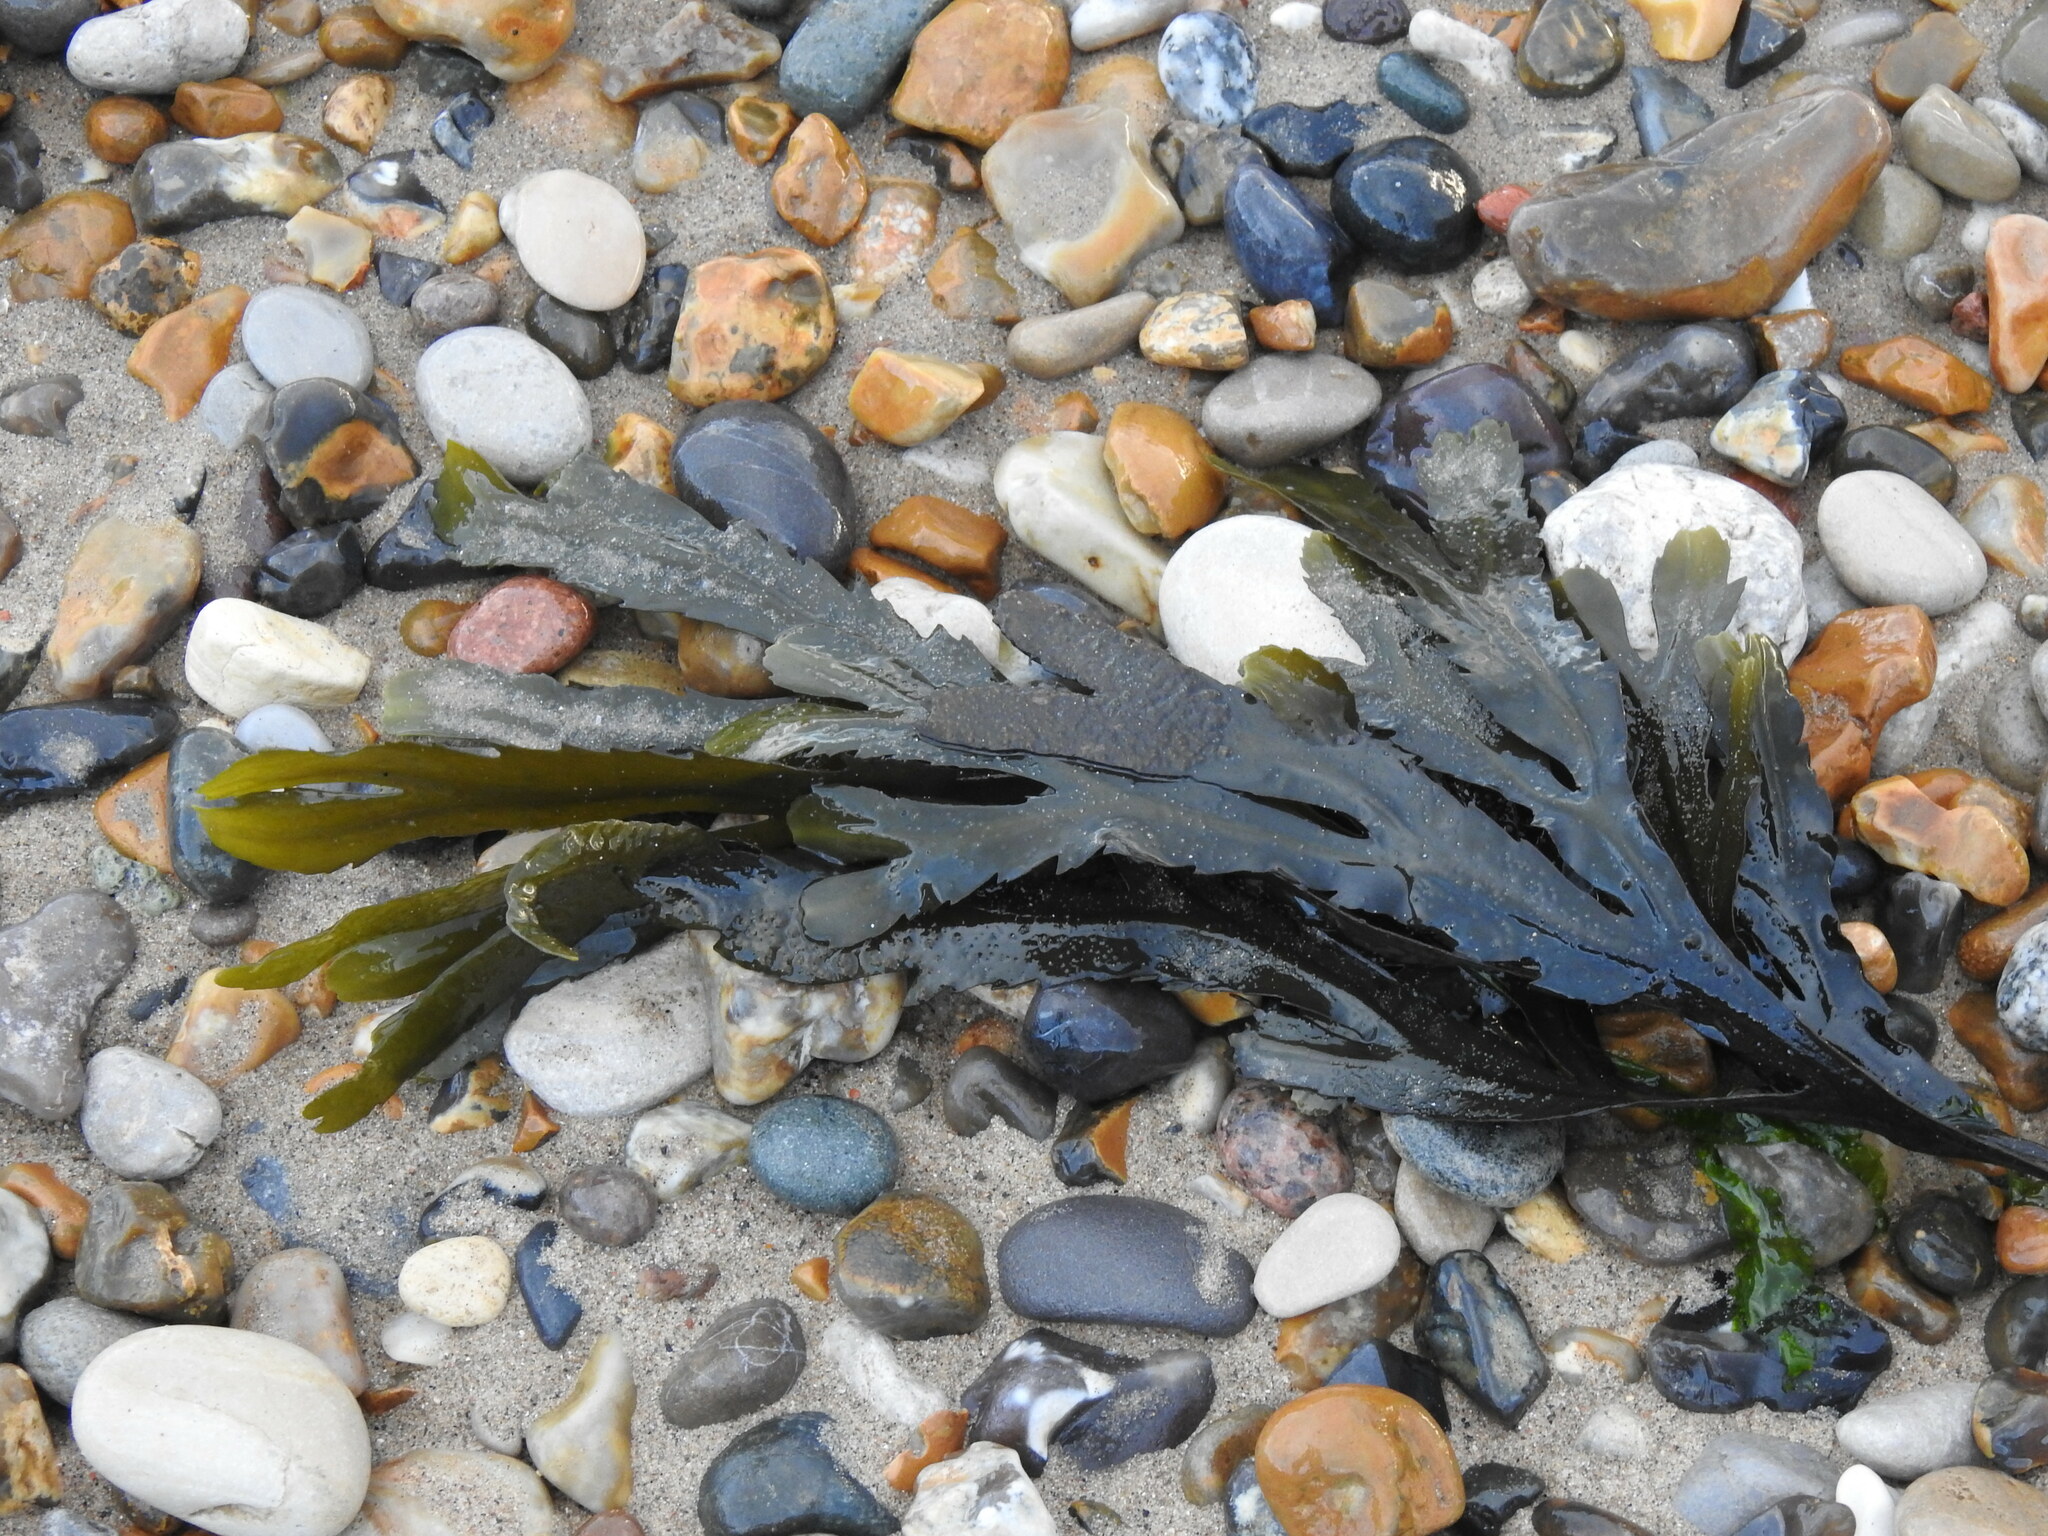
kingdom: Chromista
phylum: Ochrophyta
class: Phaeophyceae
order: Fucales
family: Fucaceae
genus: Fucus
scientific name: Fucus serratus
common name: Toothed wrack
